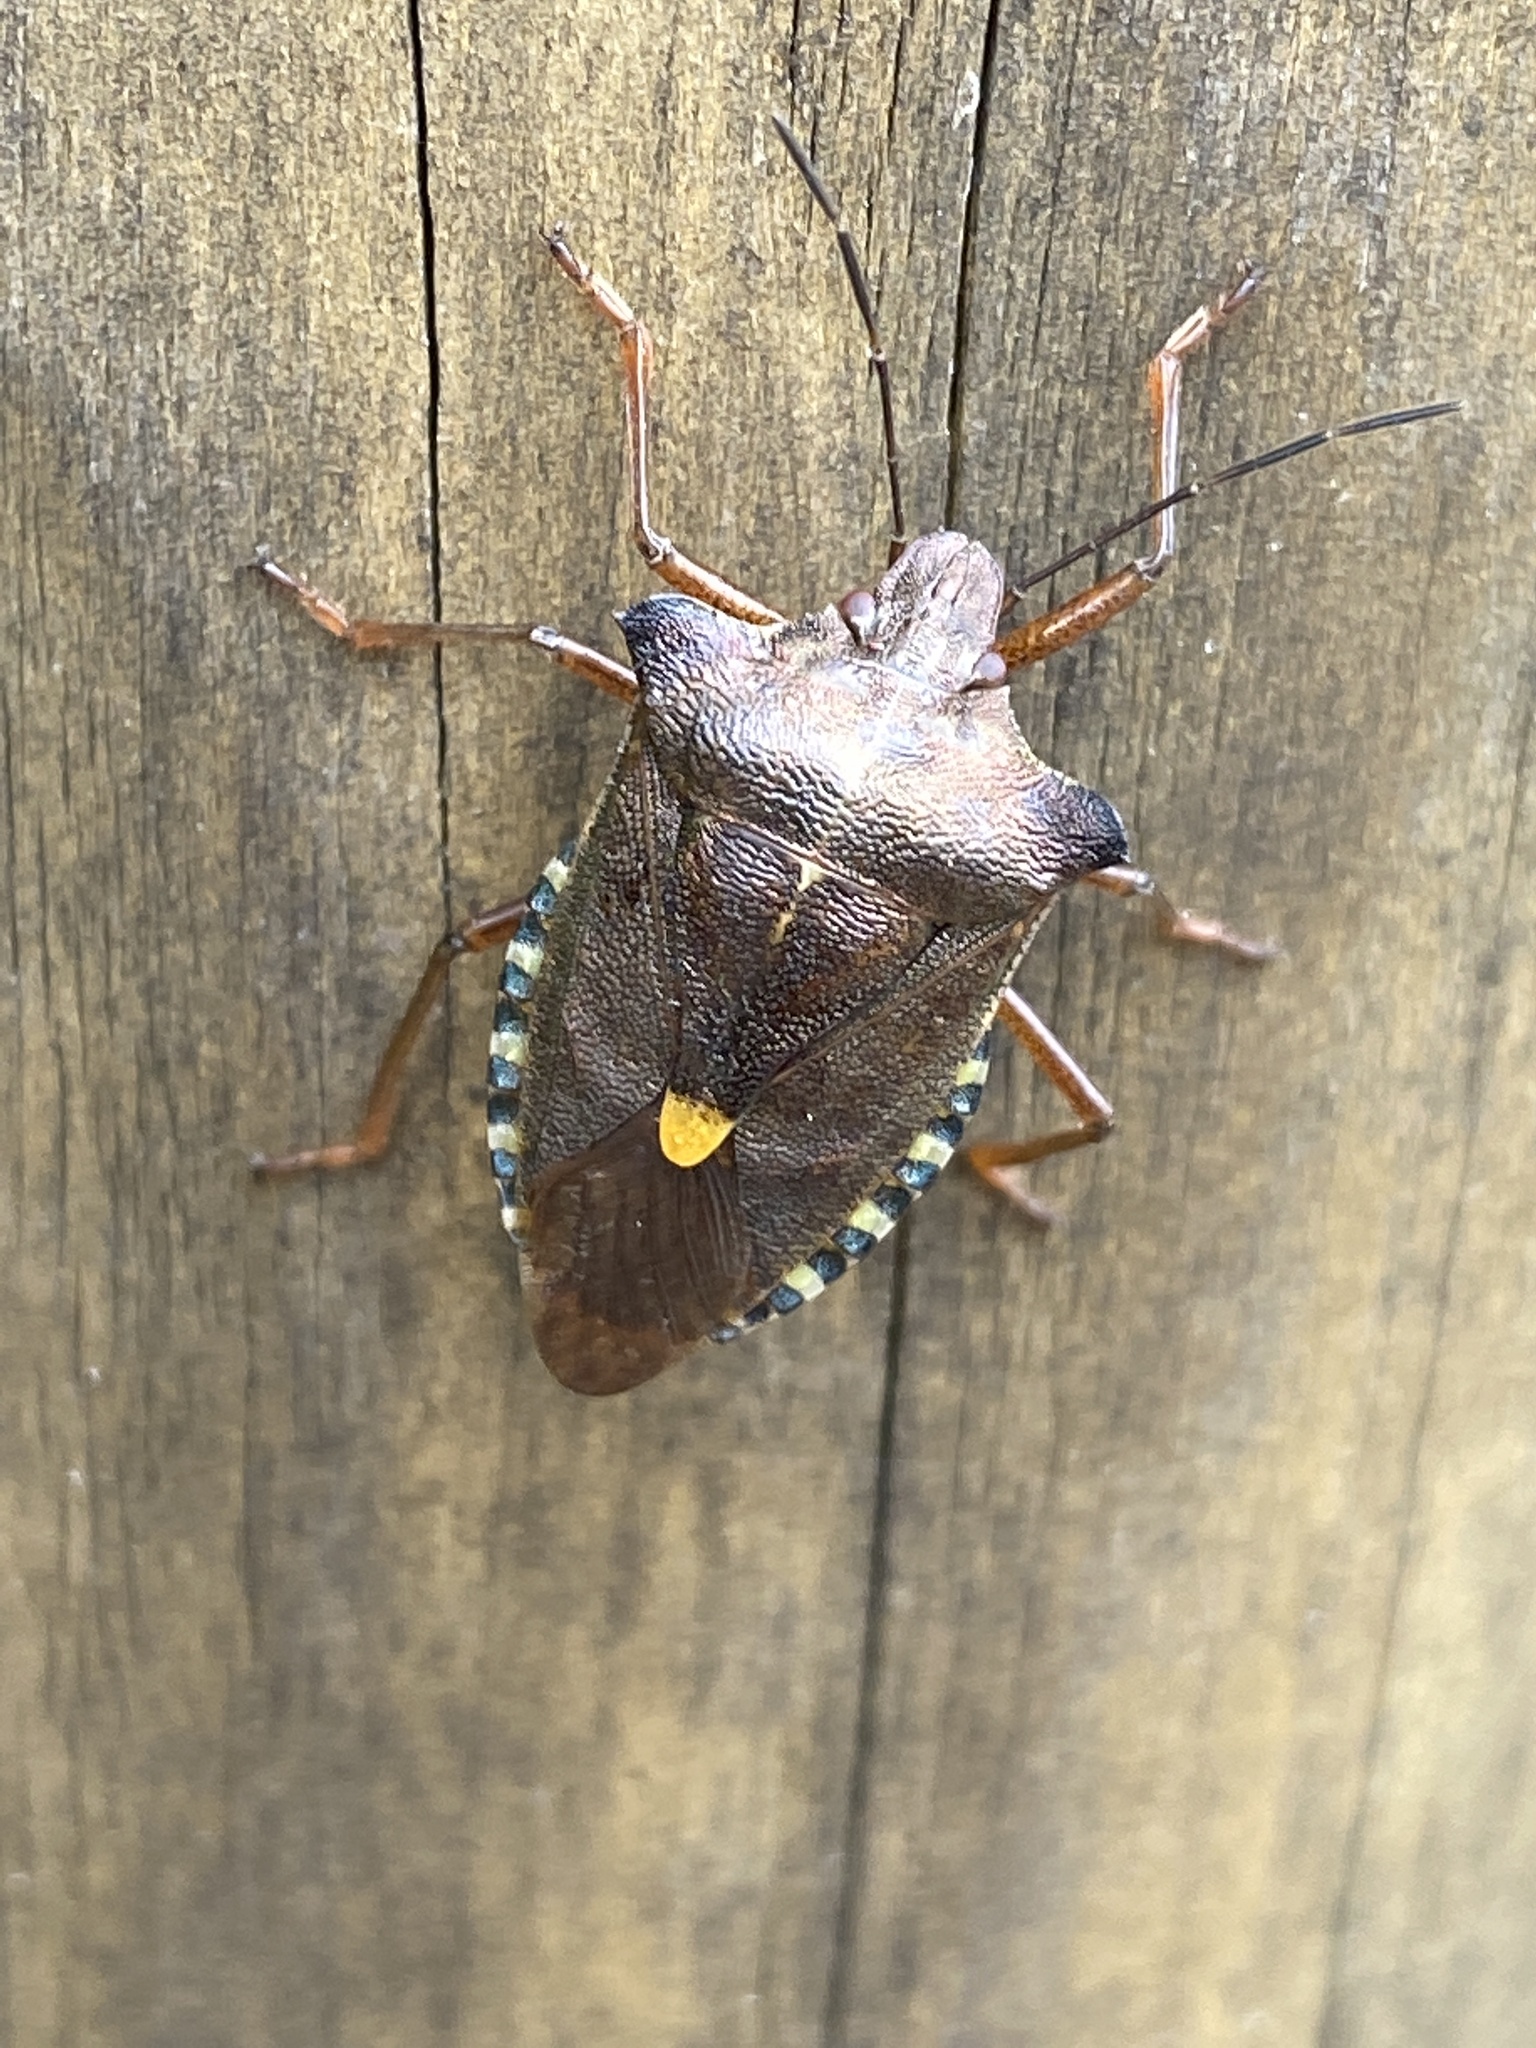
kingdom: Animalia
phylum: Arthropoda
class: Insecta
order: Hemiptera
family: Pentatomidae
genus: Pentatoma
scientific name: Pentatoma rufipes
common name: Forest bug
